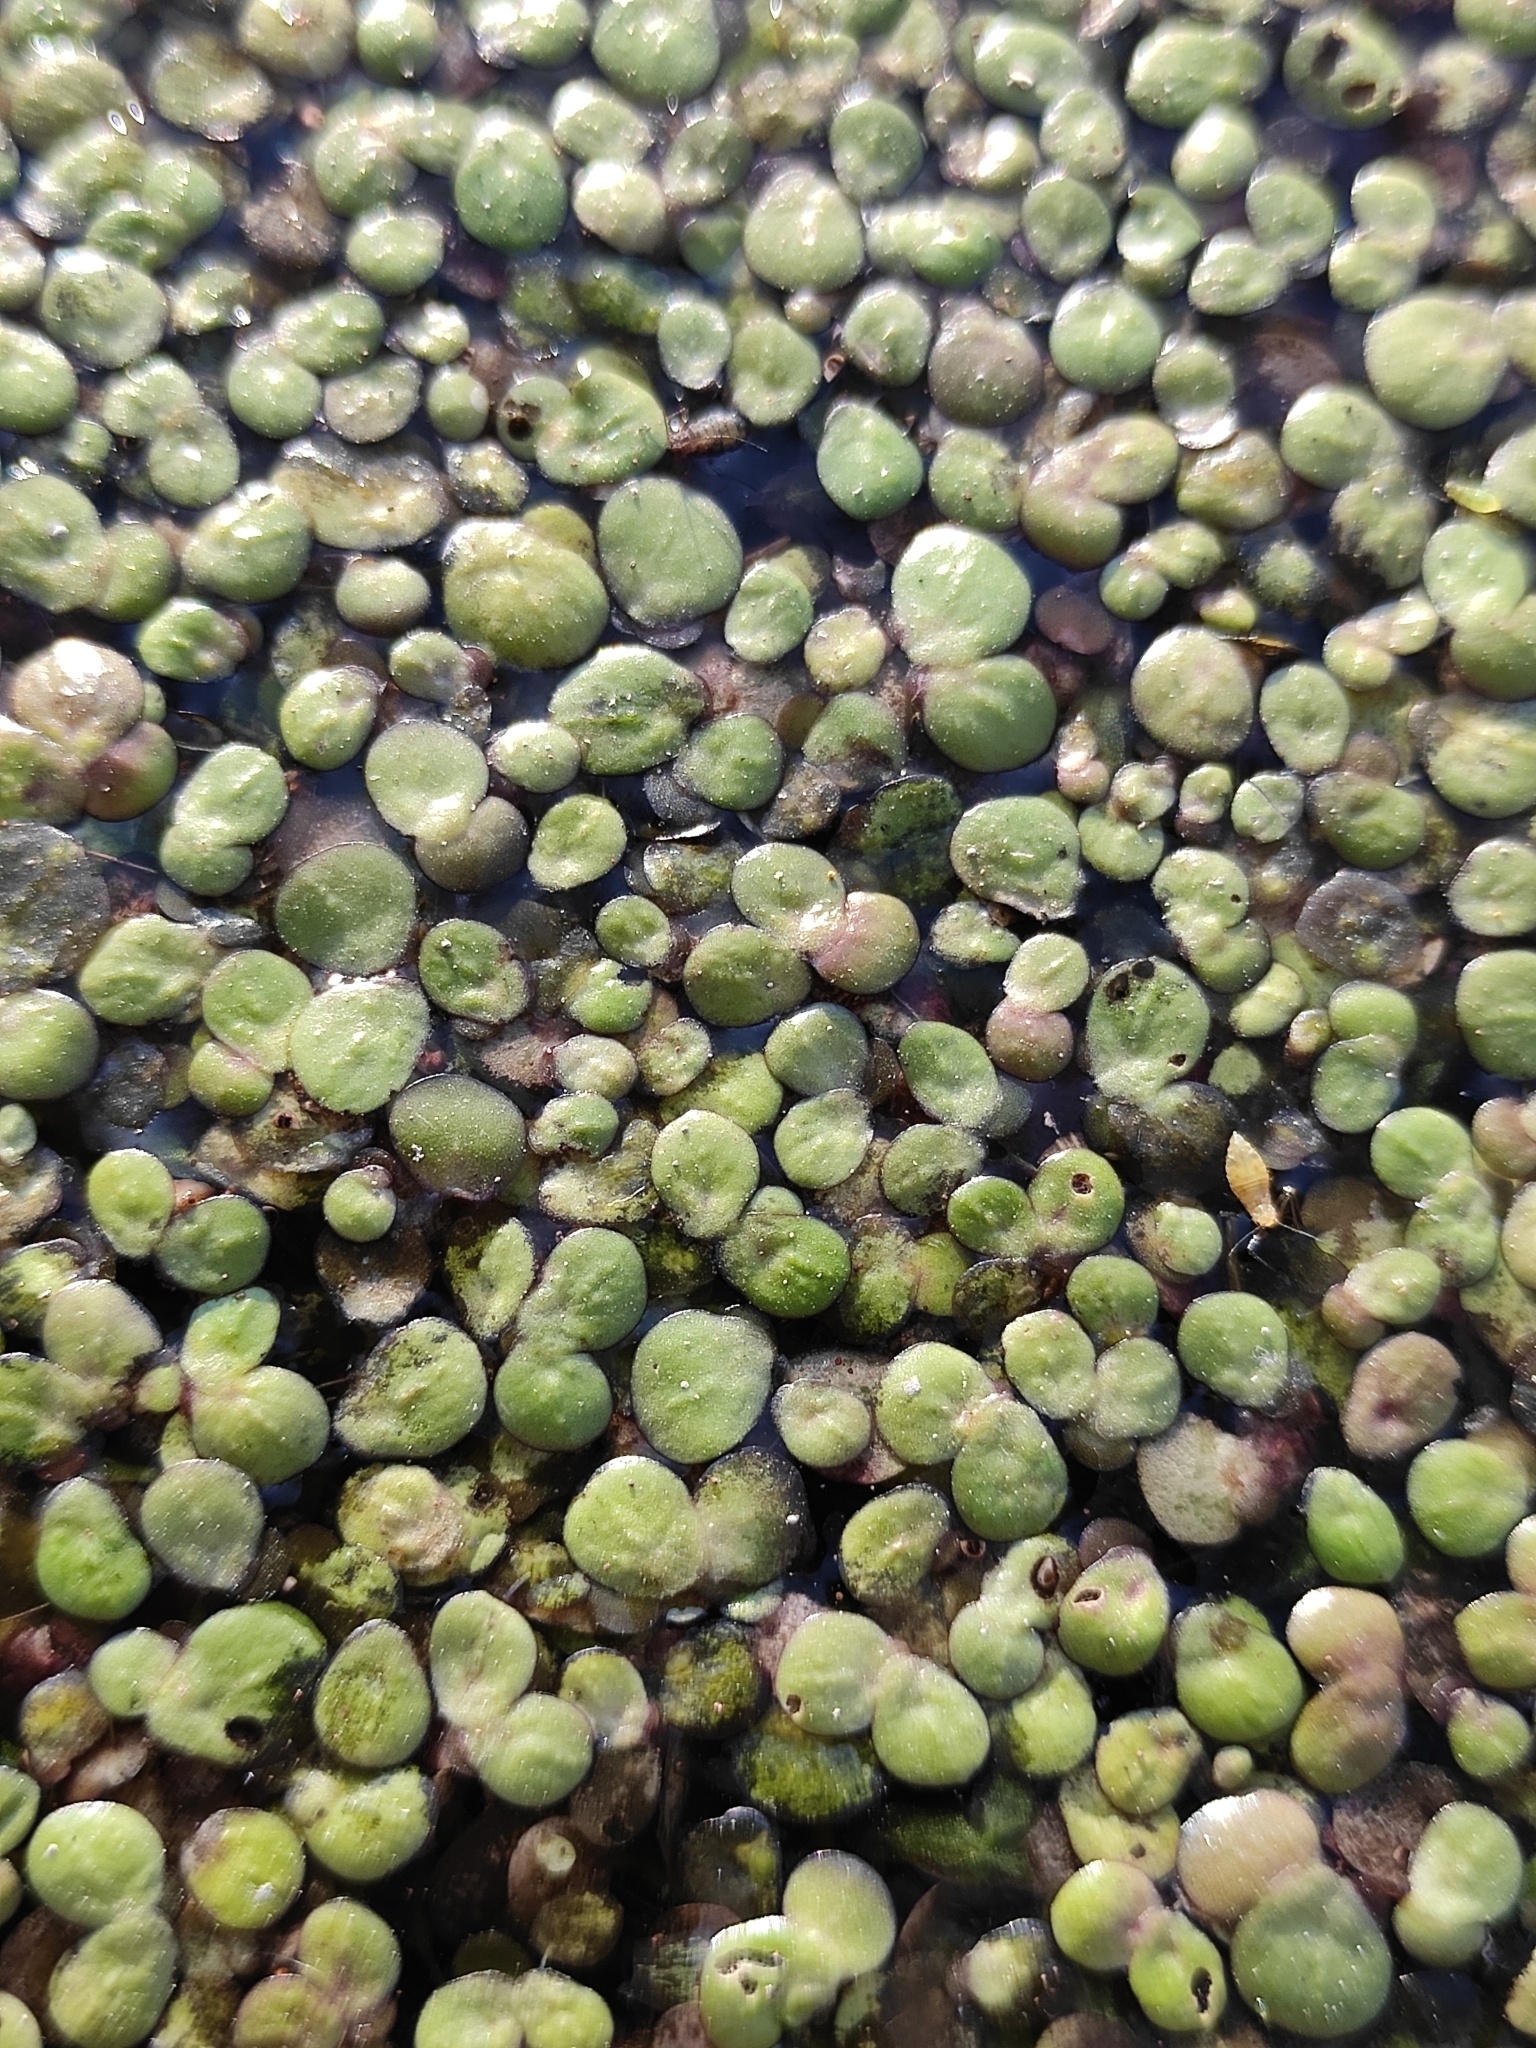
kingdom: Plantae
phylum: Tracheophyta
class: Liliopsida
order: Alismatales
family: Araceae
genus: Spirodela
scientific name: Spirodela polyrhiza
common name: Great duckweed
